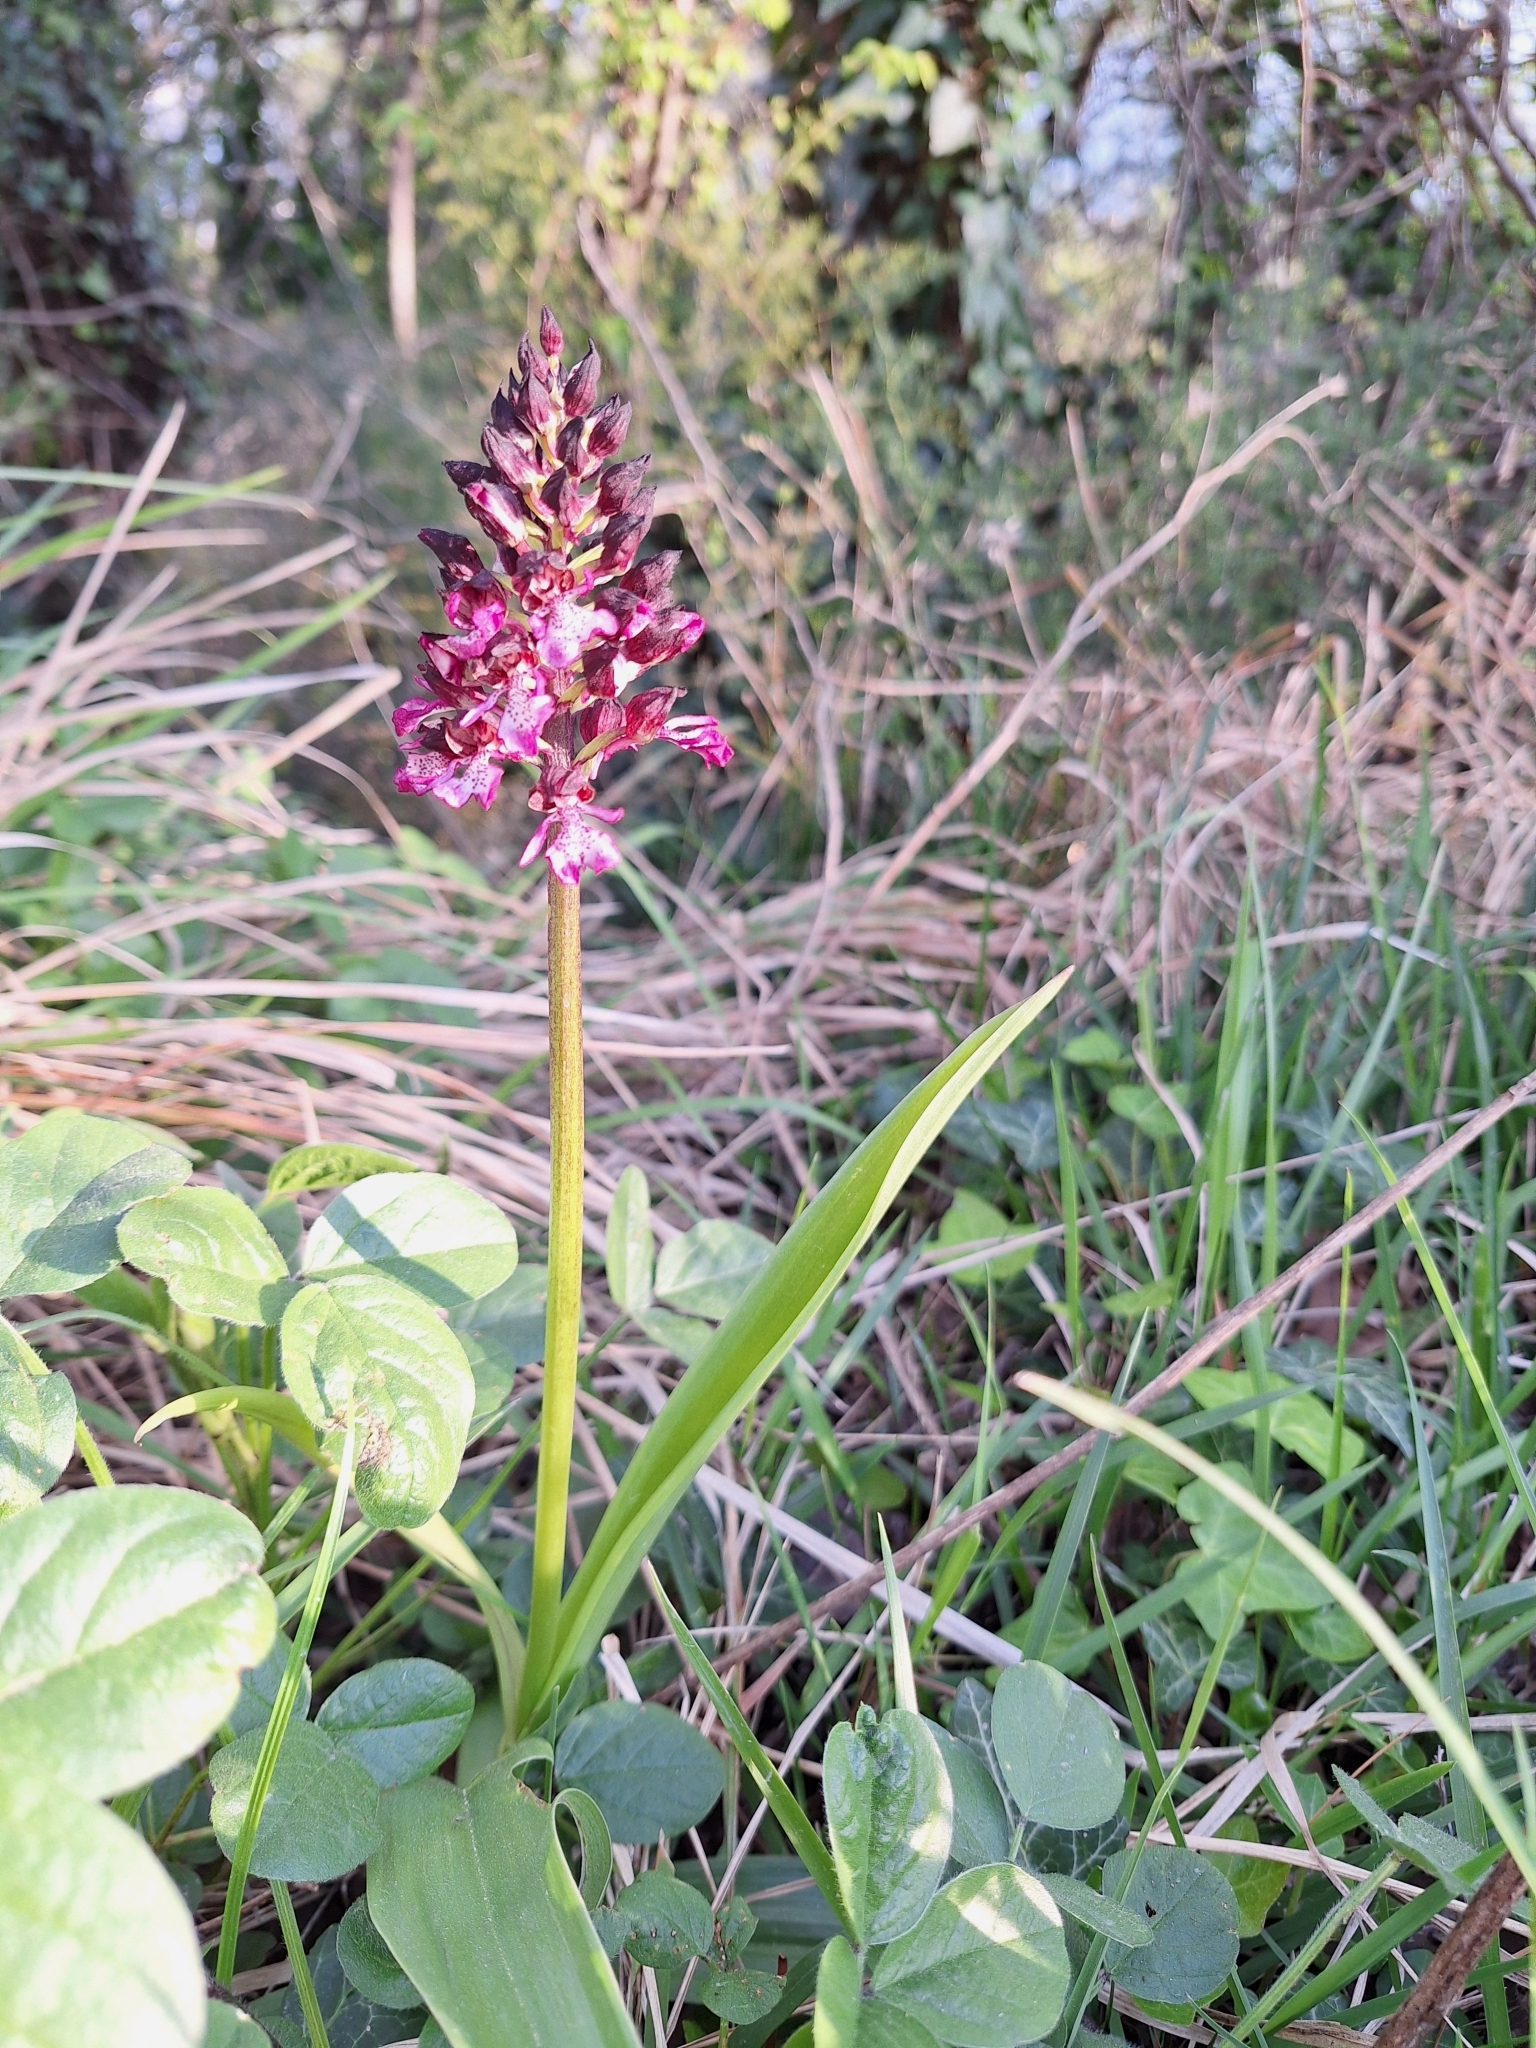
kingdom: Plantae
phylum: Tracheophyta
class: Liliopsida
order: Asparagales
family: Orchidaceae
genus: Orchis
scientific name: Orchis purpurea
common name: Lady orchid
